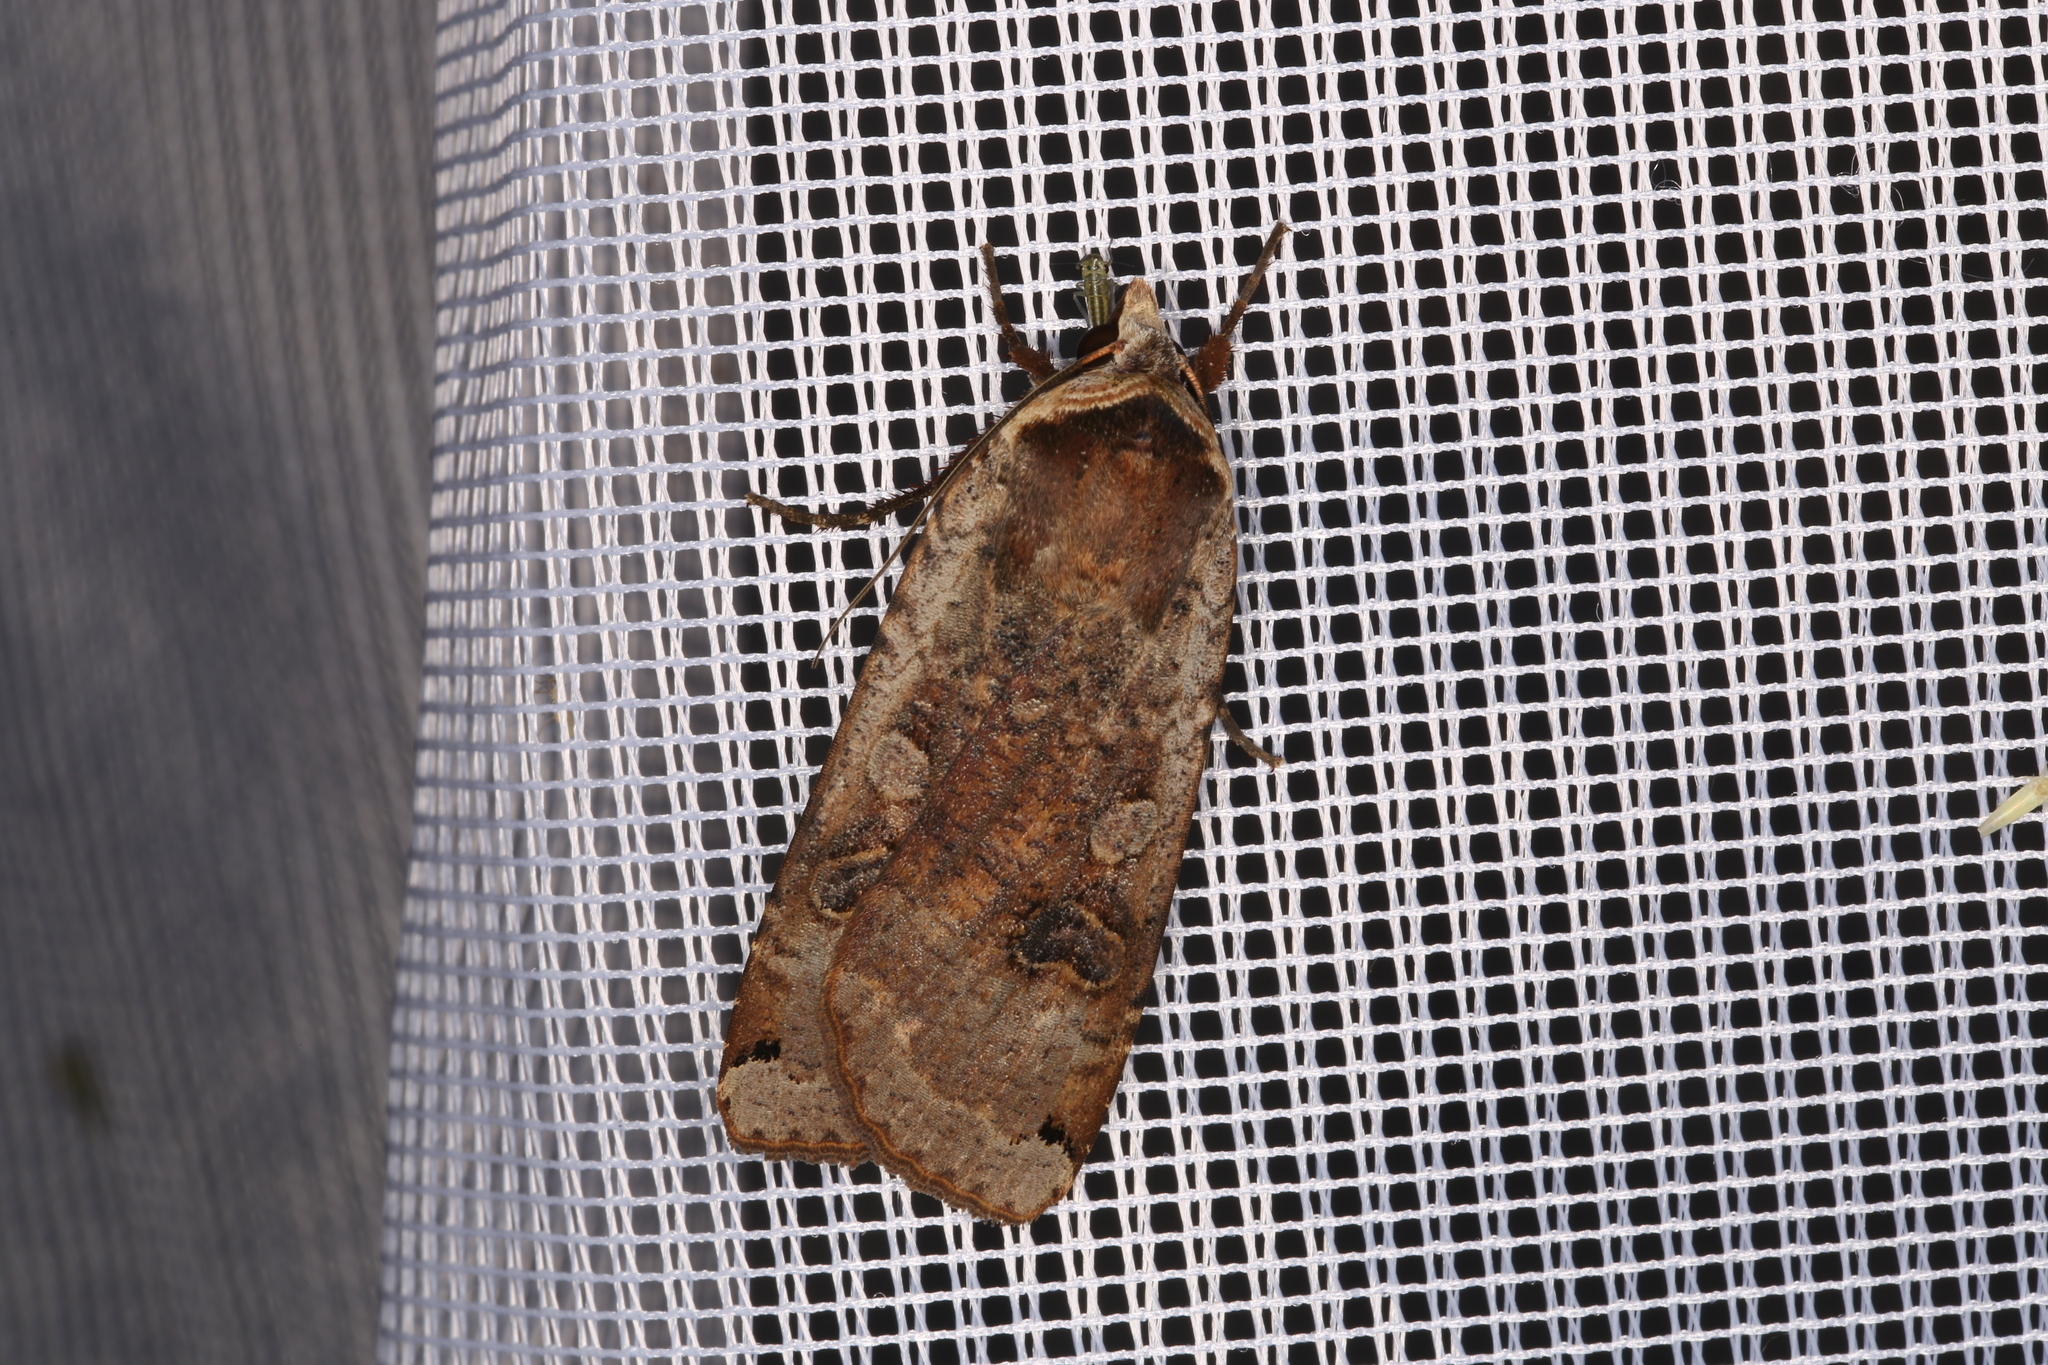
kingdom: Animalia
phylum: Arthropoda
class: Insecta
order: Lepidoptera
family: Noctuidae
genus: Noctua
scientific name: Noctua pronuba
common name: Large yellow underwing
